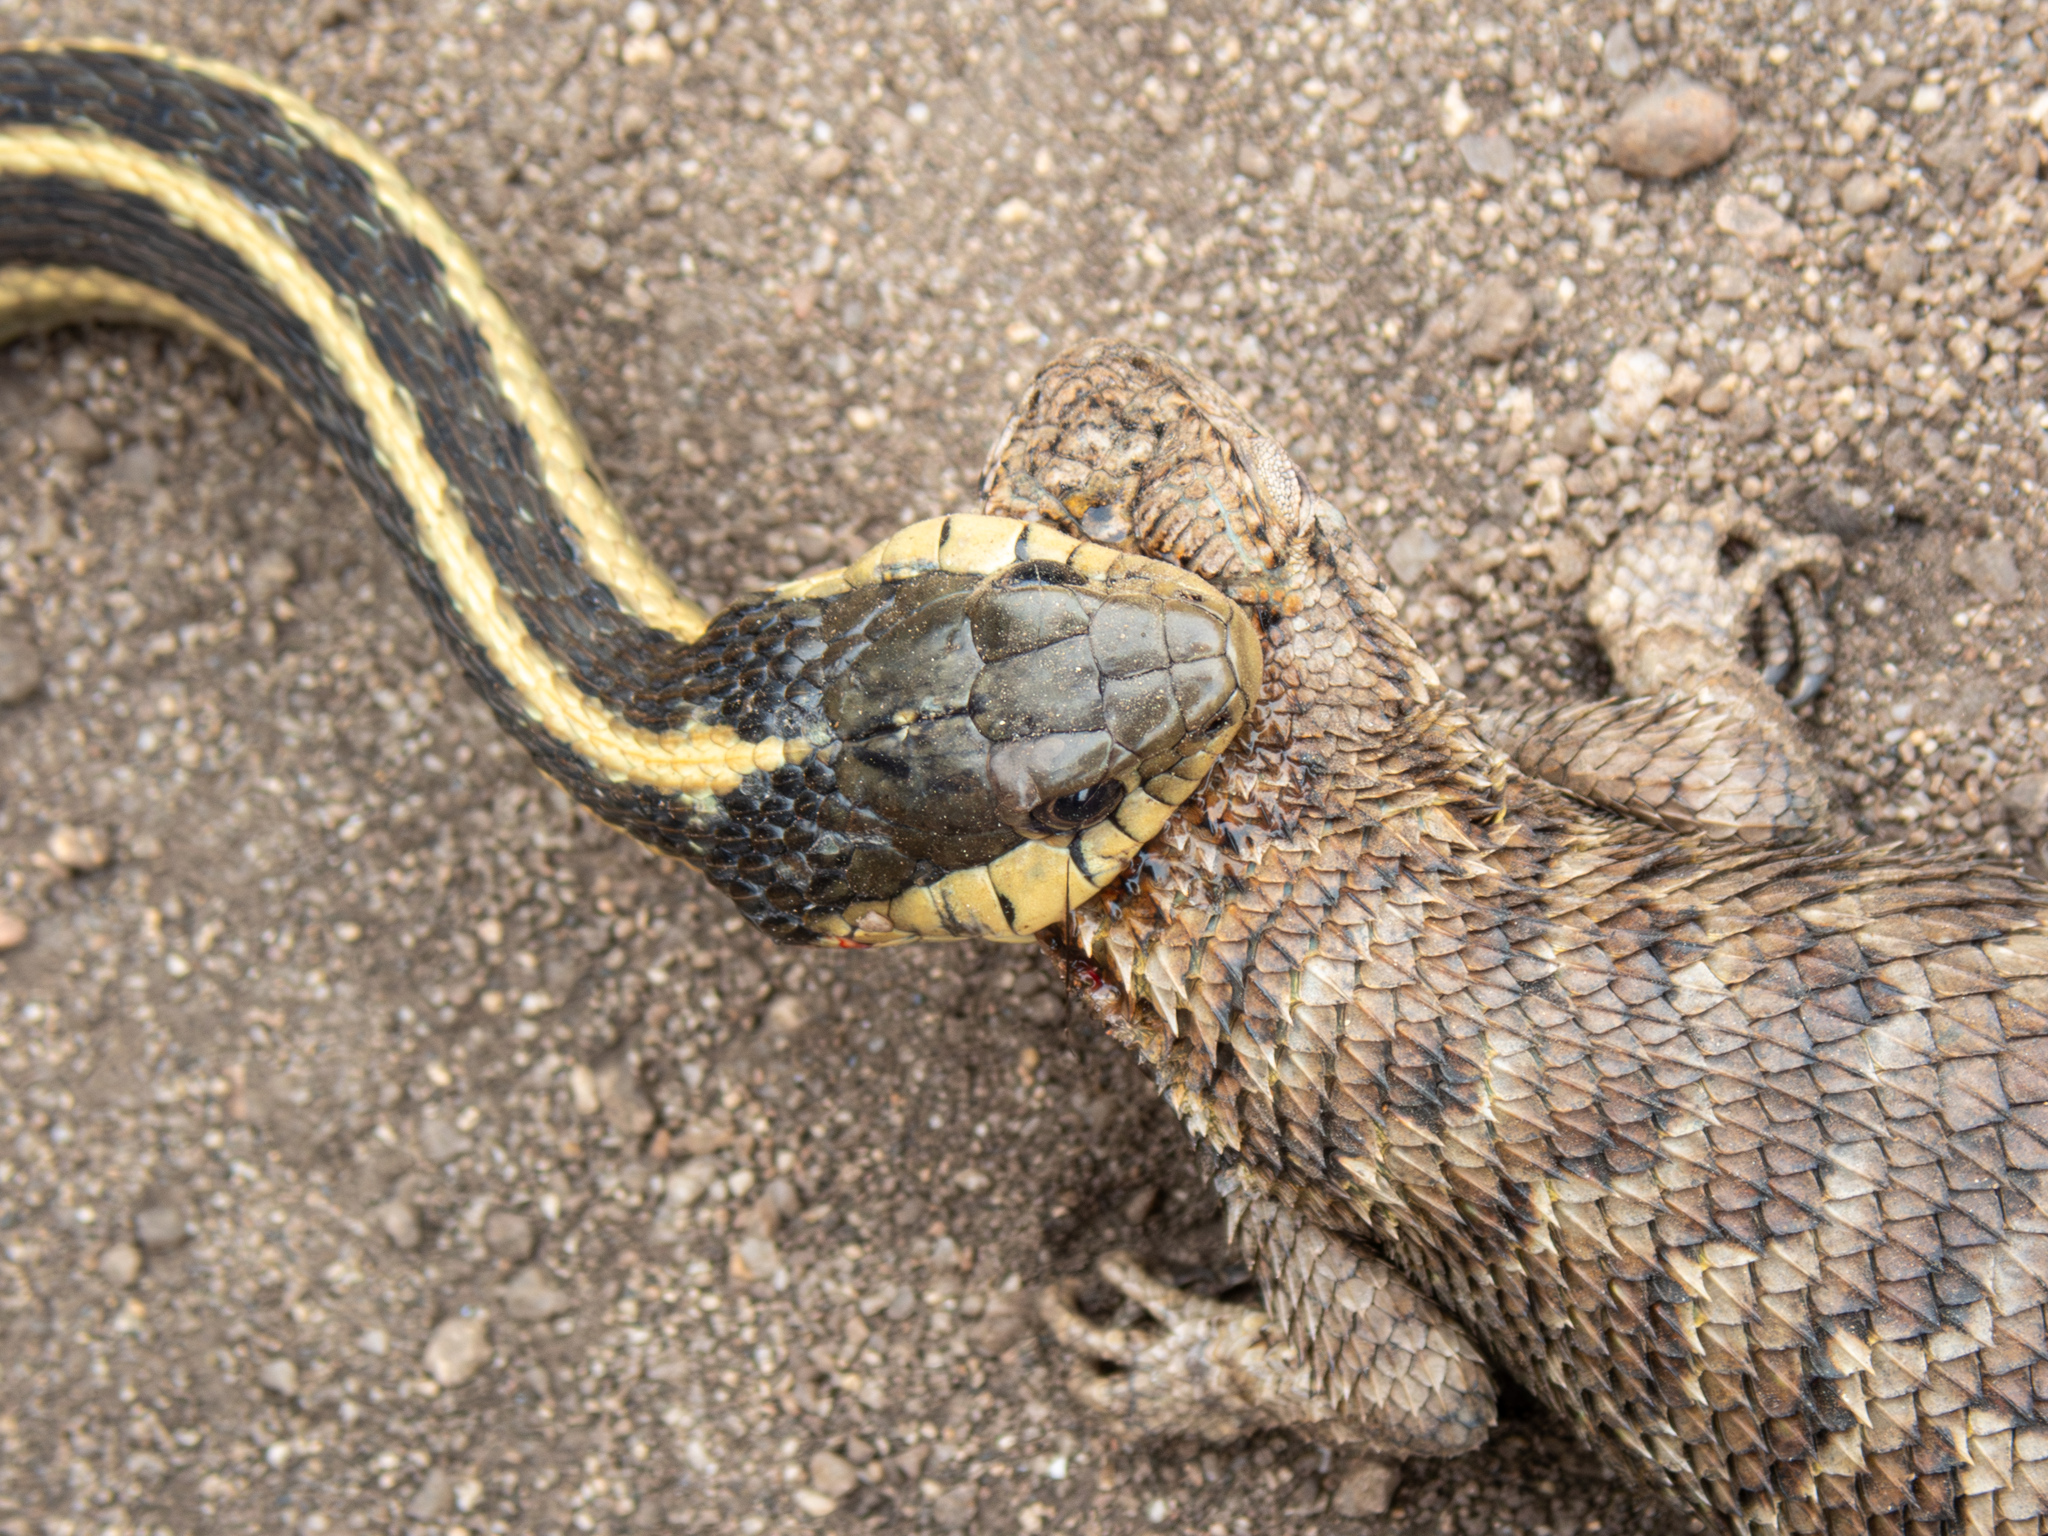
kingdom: Animalia
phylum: Chordata
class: Squamata
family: Phrynosomatidae
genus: Sceloporus
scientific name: Sceloporus occidentalis
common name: Western fence lizard
